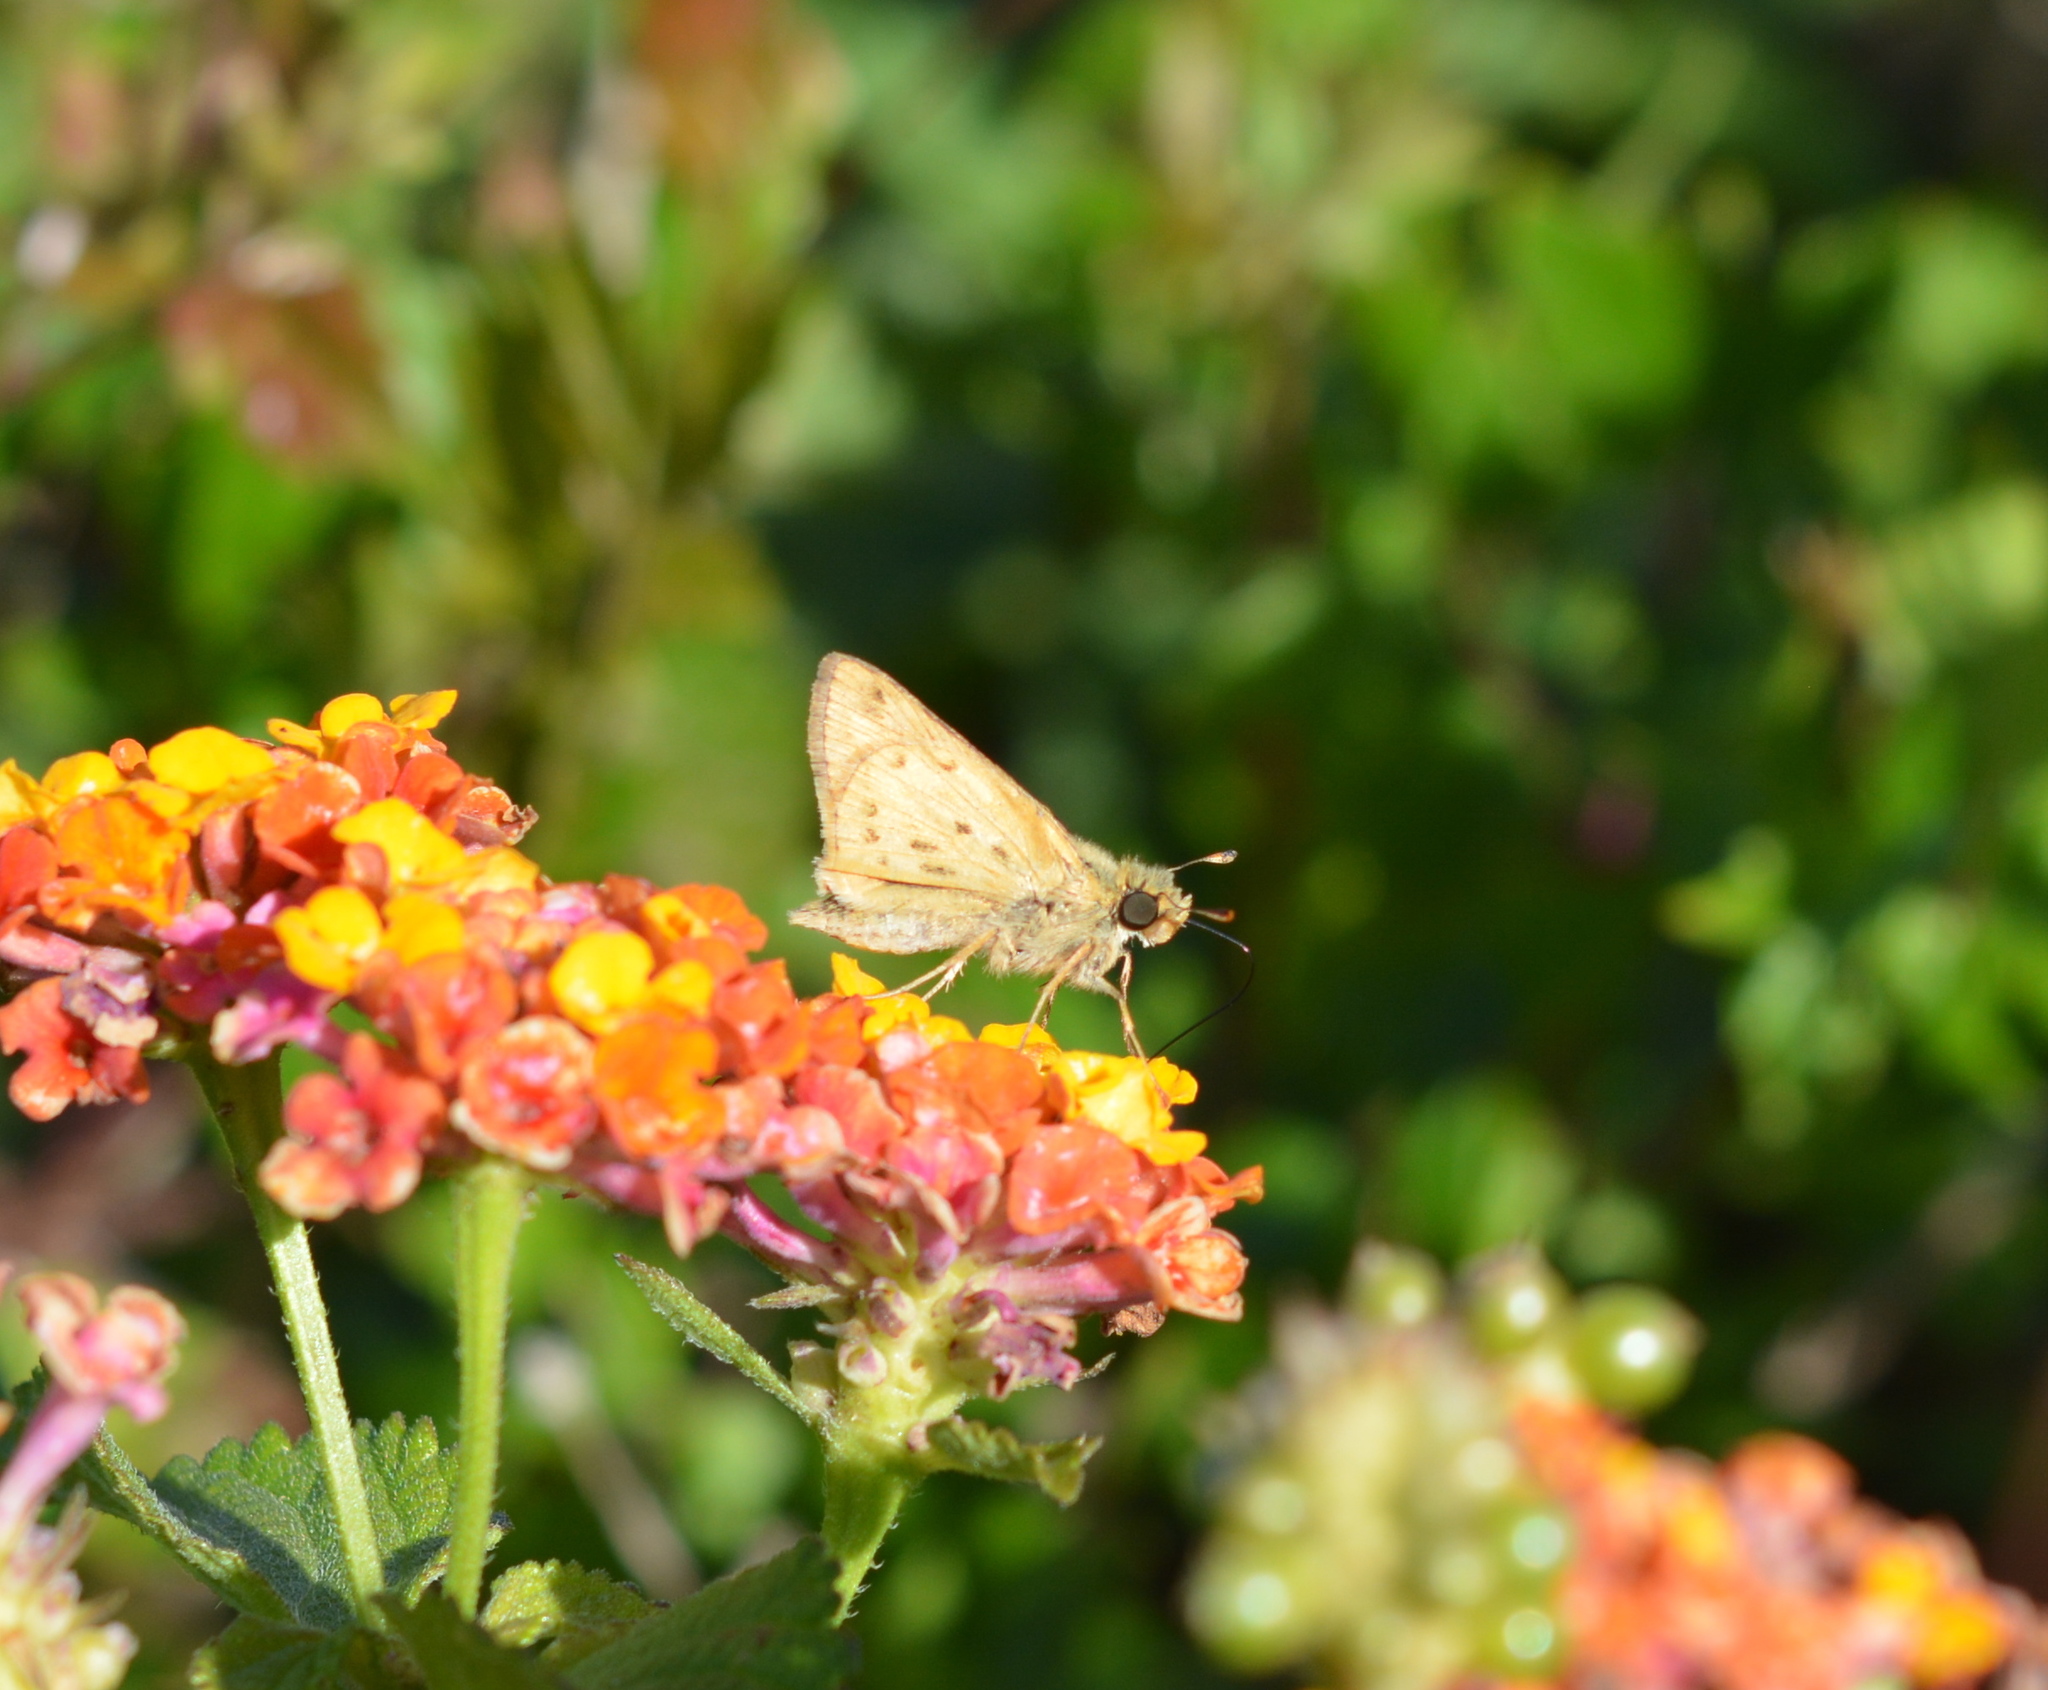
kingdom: Animalia
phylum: Arthropoda
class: Insecta
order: Lepidoptera
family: Hesperiidae
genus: Hylephila
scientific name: Hylephila phyleus
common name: Fiery skipper
